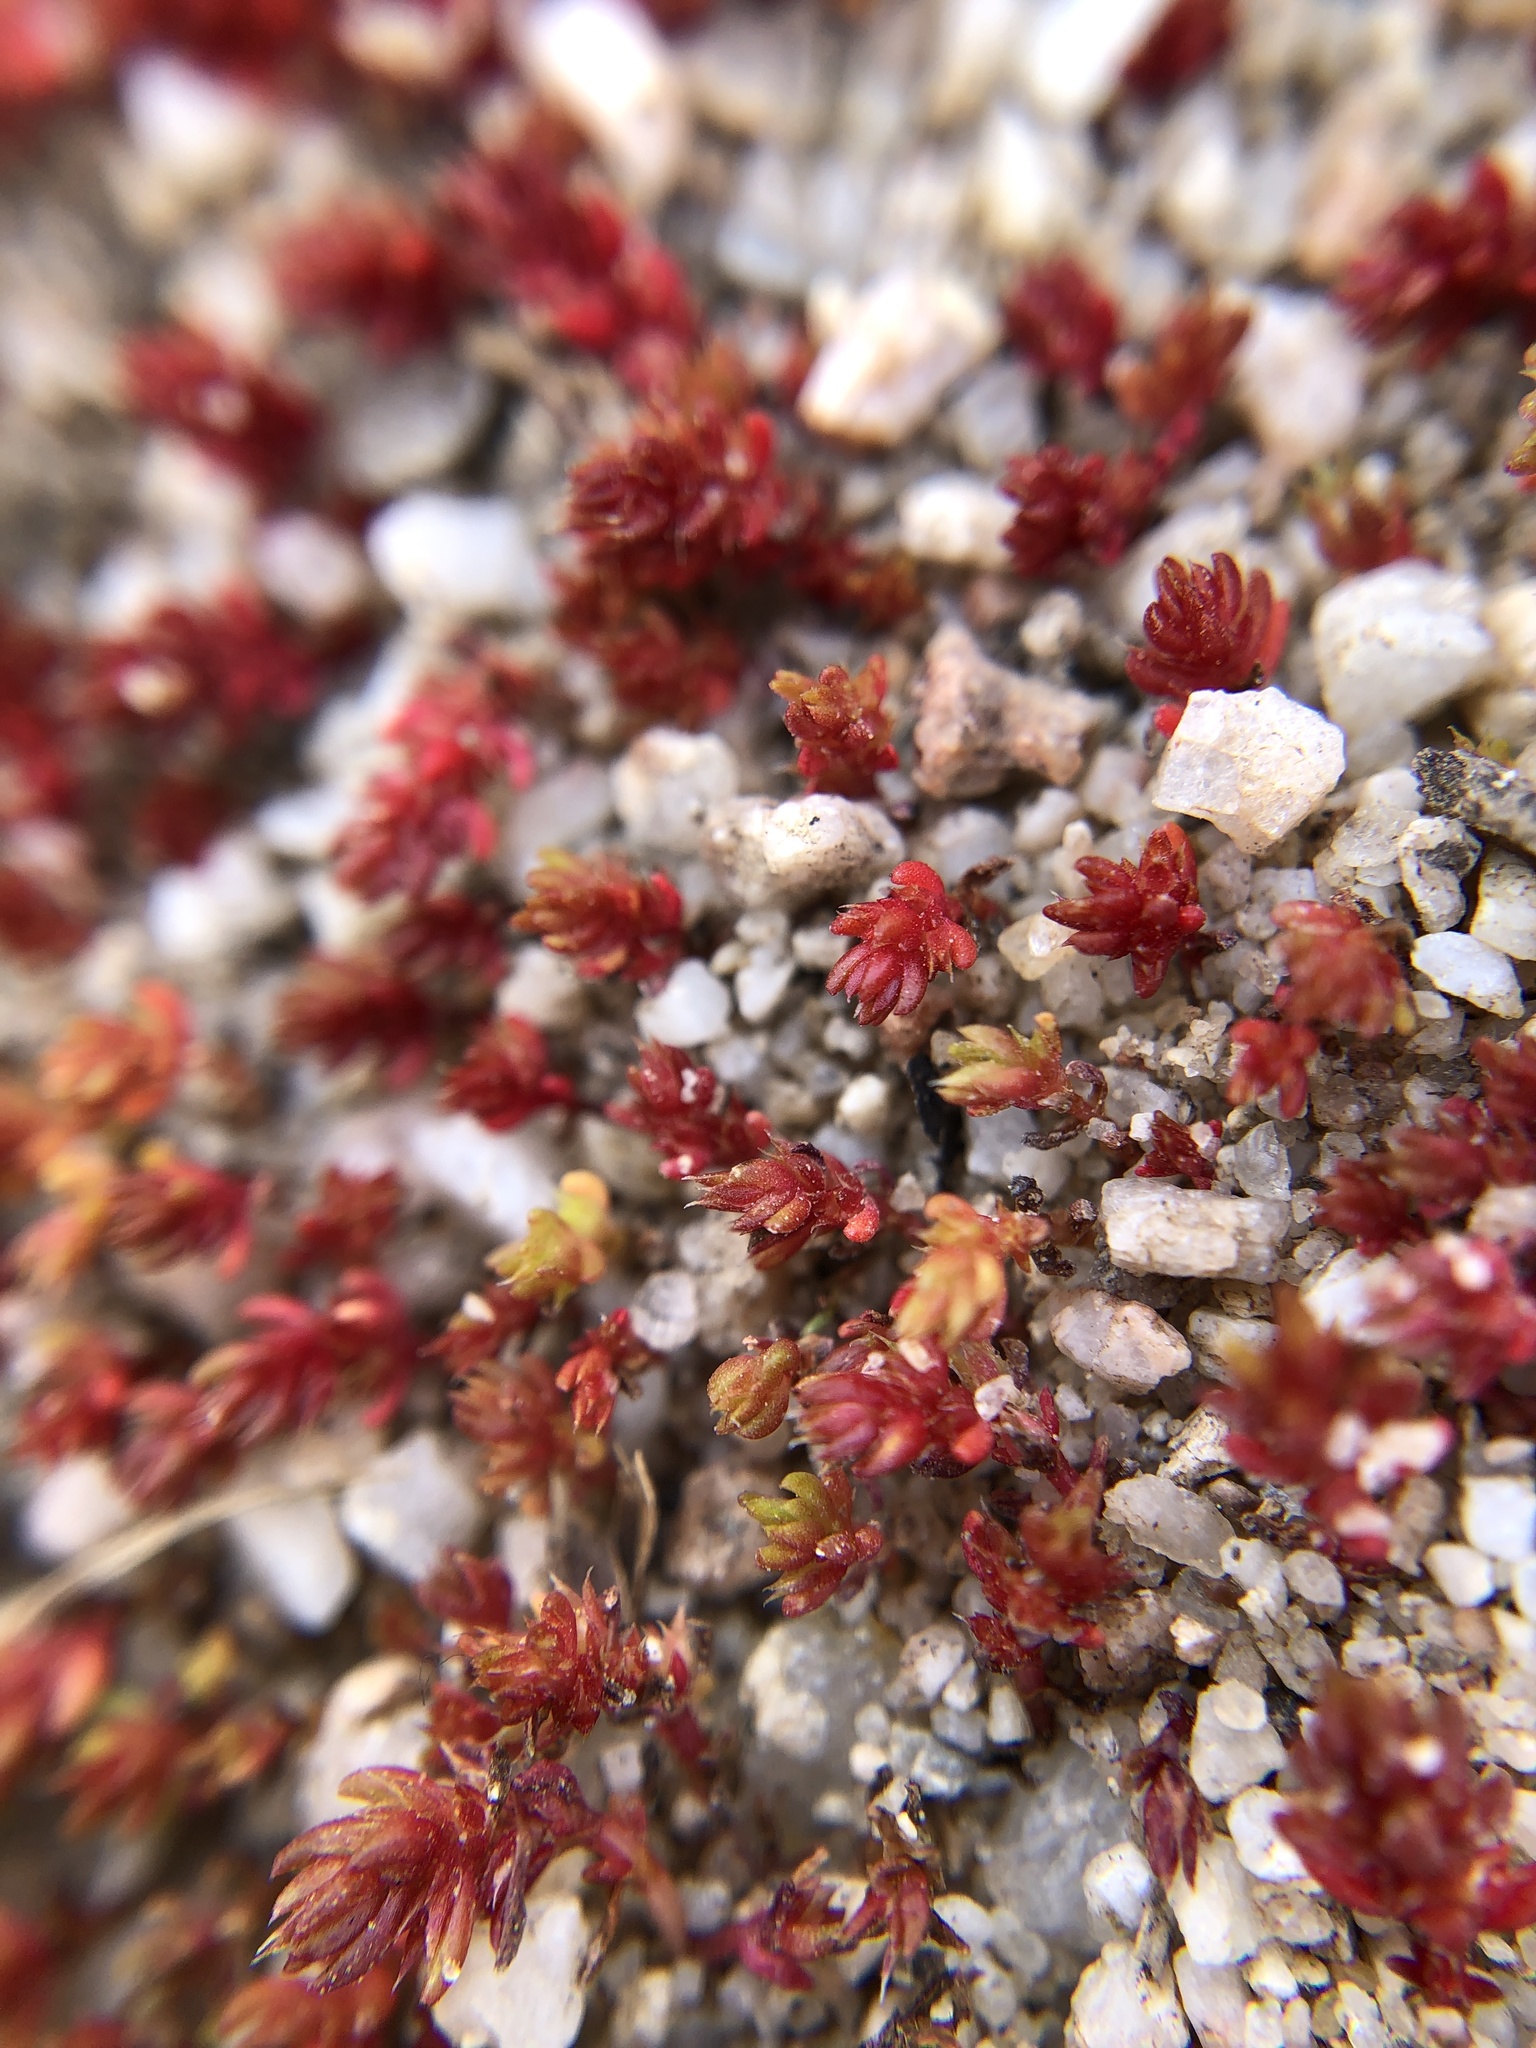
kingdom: Plantae
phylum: Tracheophyta
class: Magnoliopsida
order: Saxifragales
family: Crassulaceae
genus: Crassula
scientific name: Crassula connata
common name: Erect pygmyweed
